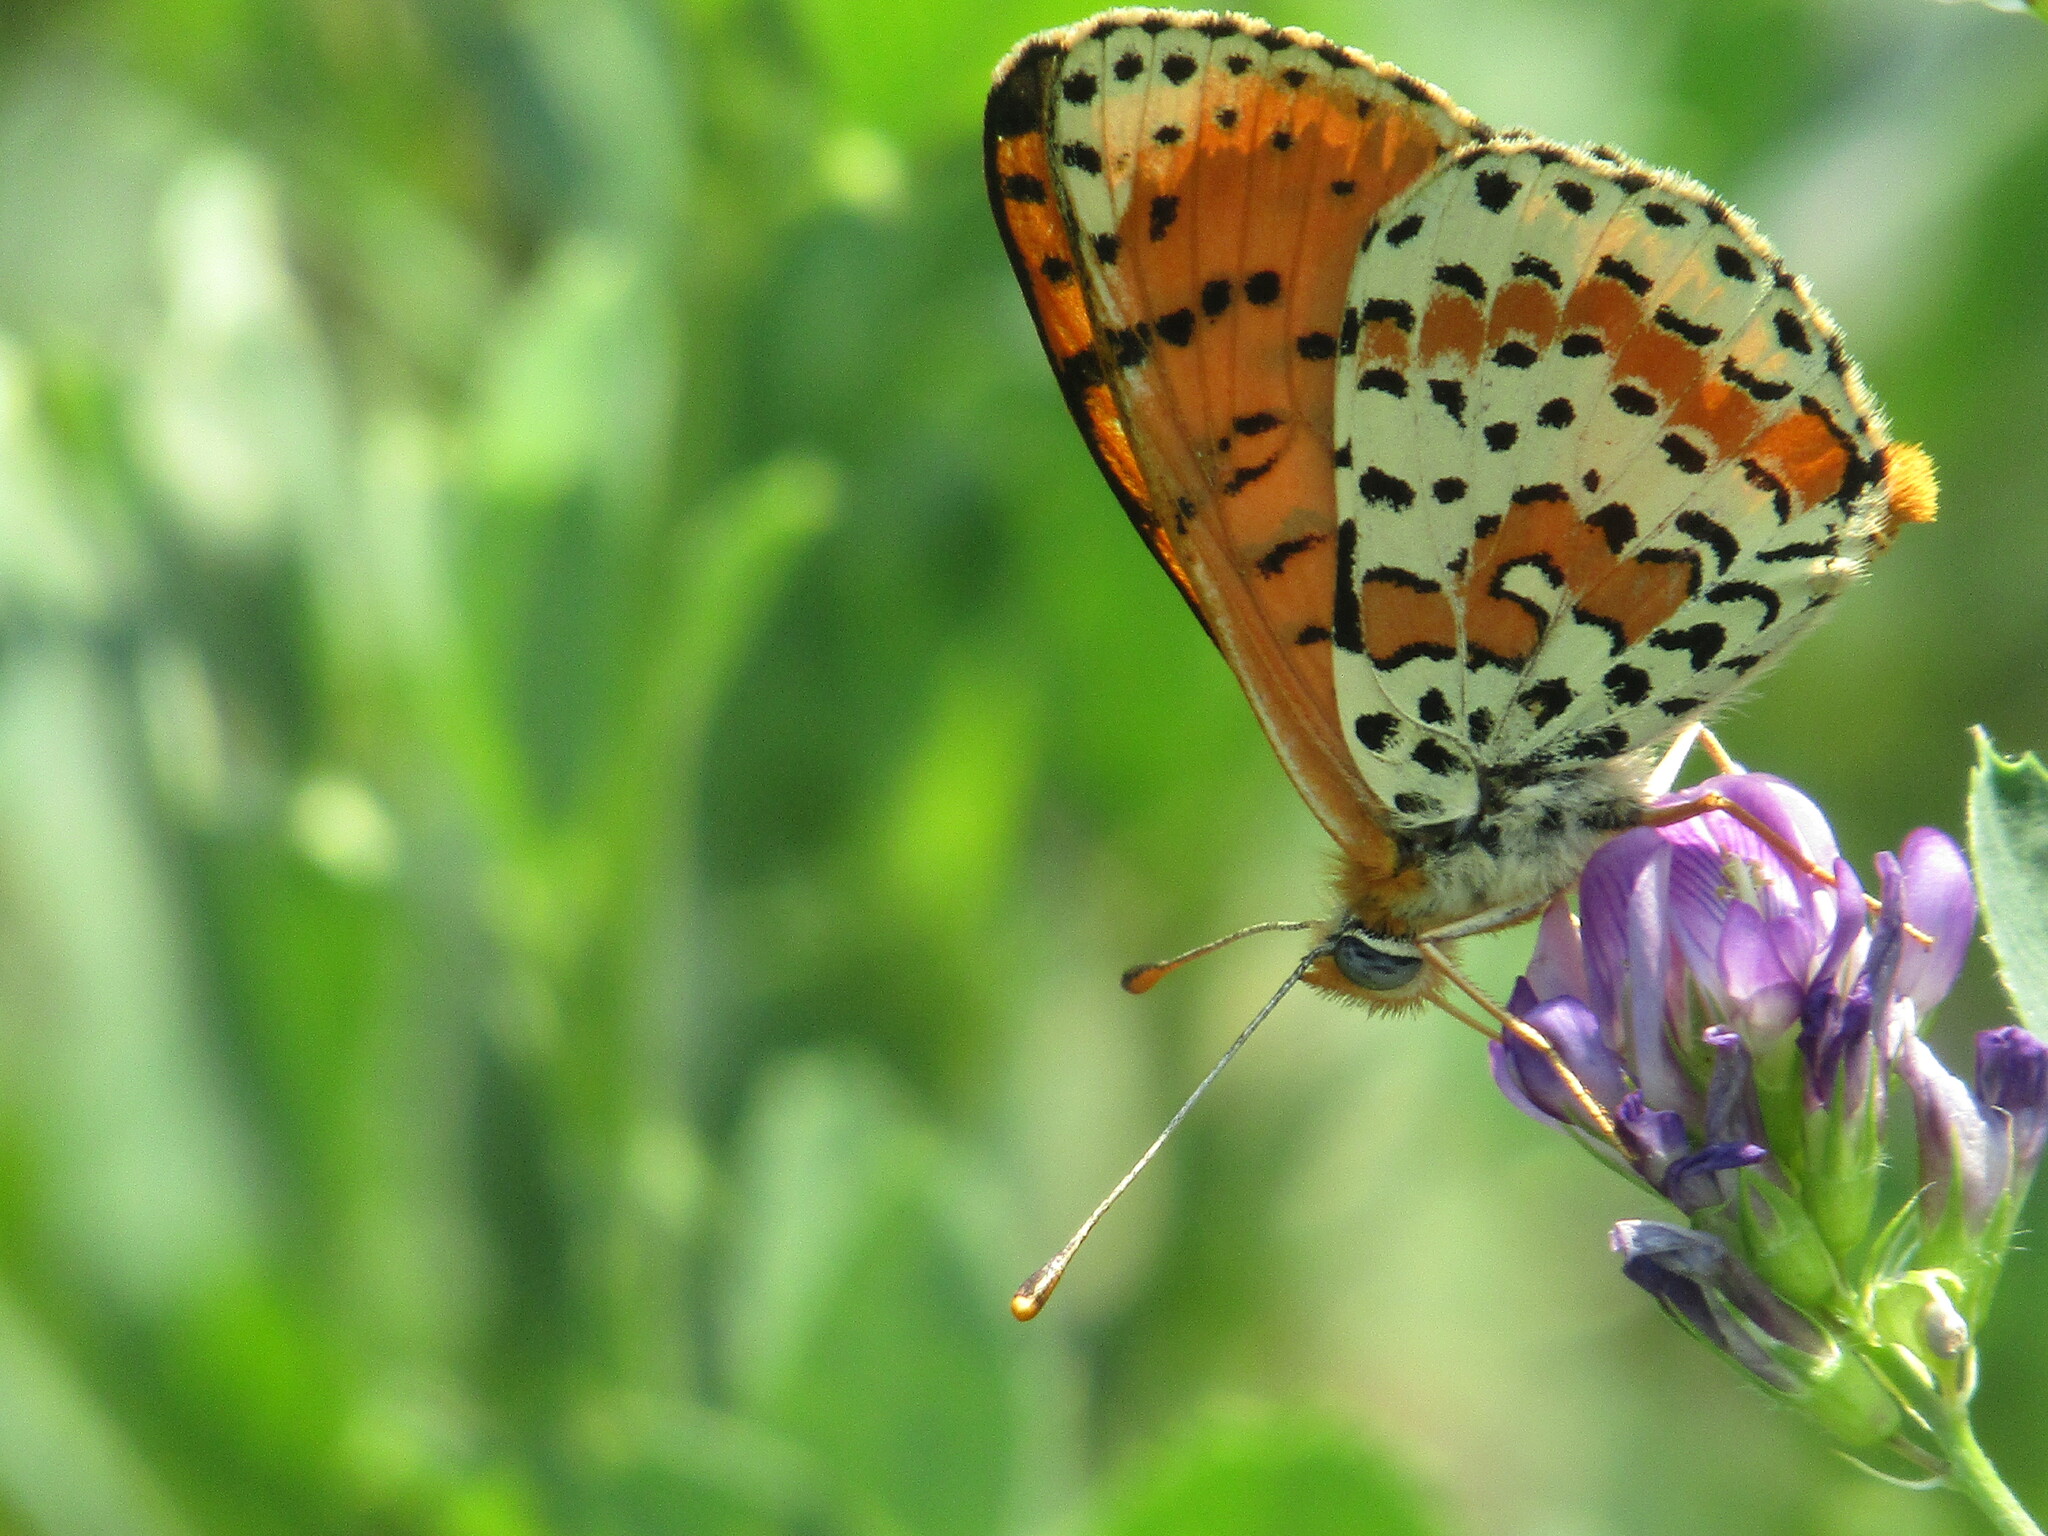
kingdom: Animalia
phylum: Arthropoda
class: Insecta
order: Lepidoptera
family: Nymphalidae
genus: Melitaea
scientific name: Melitaea didyma
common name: Spotted fritillary
